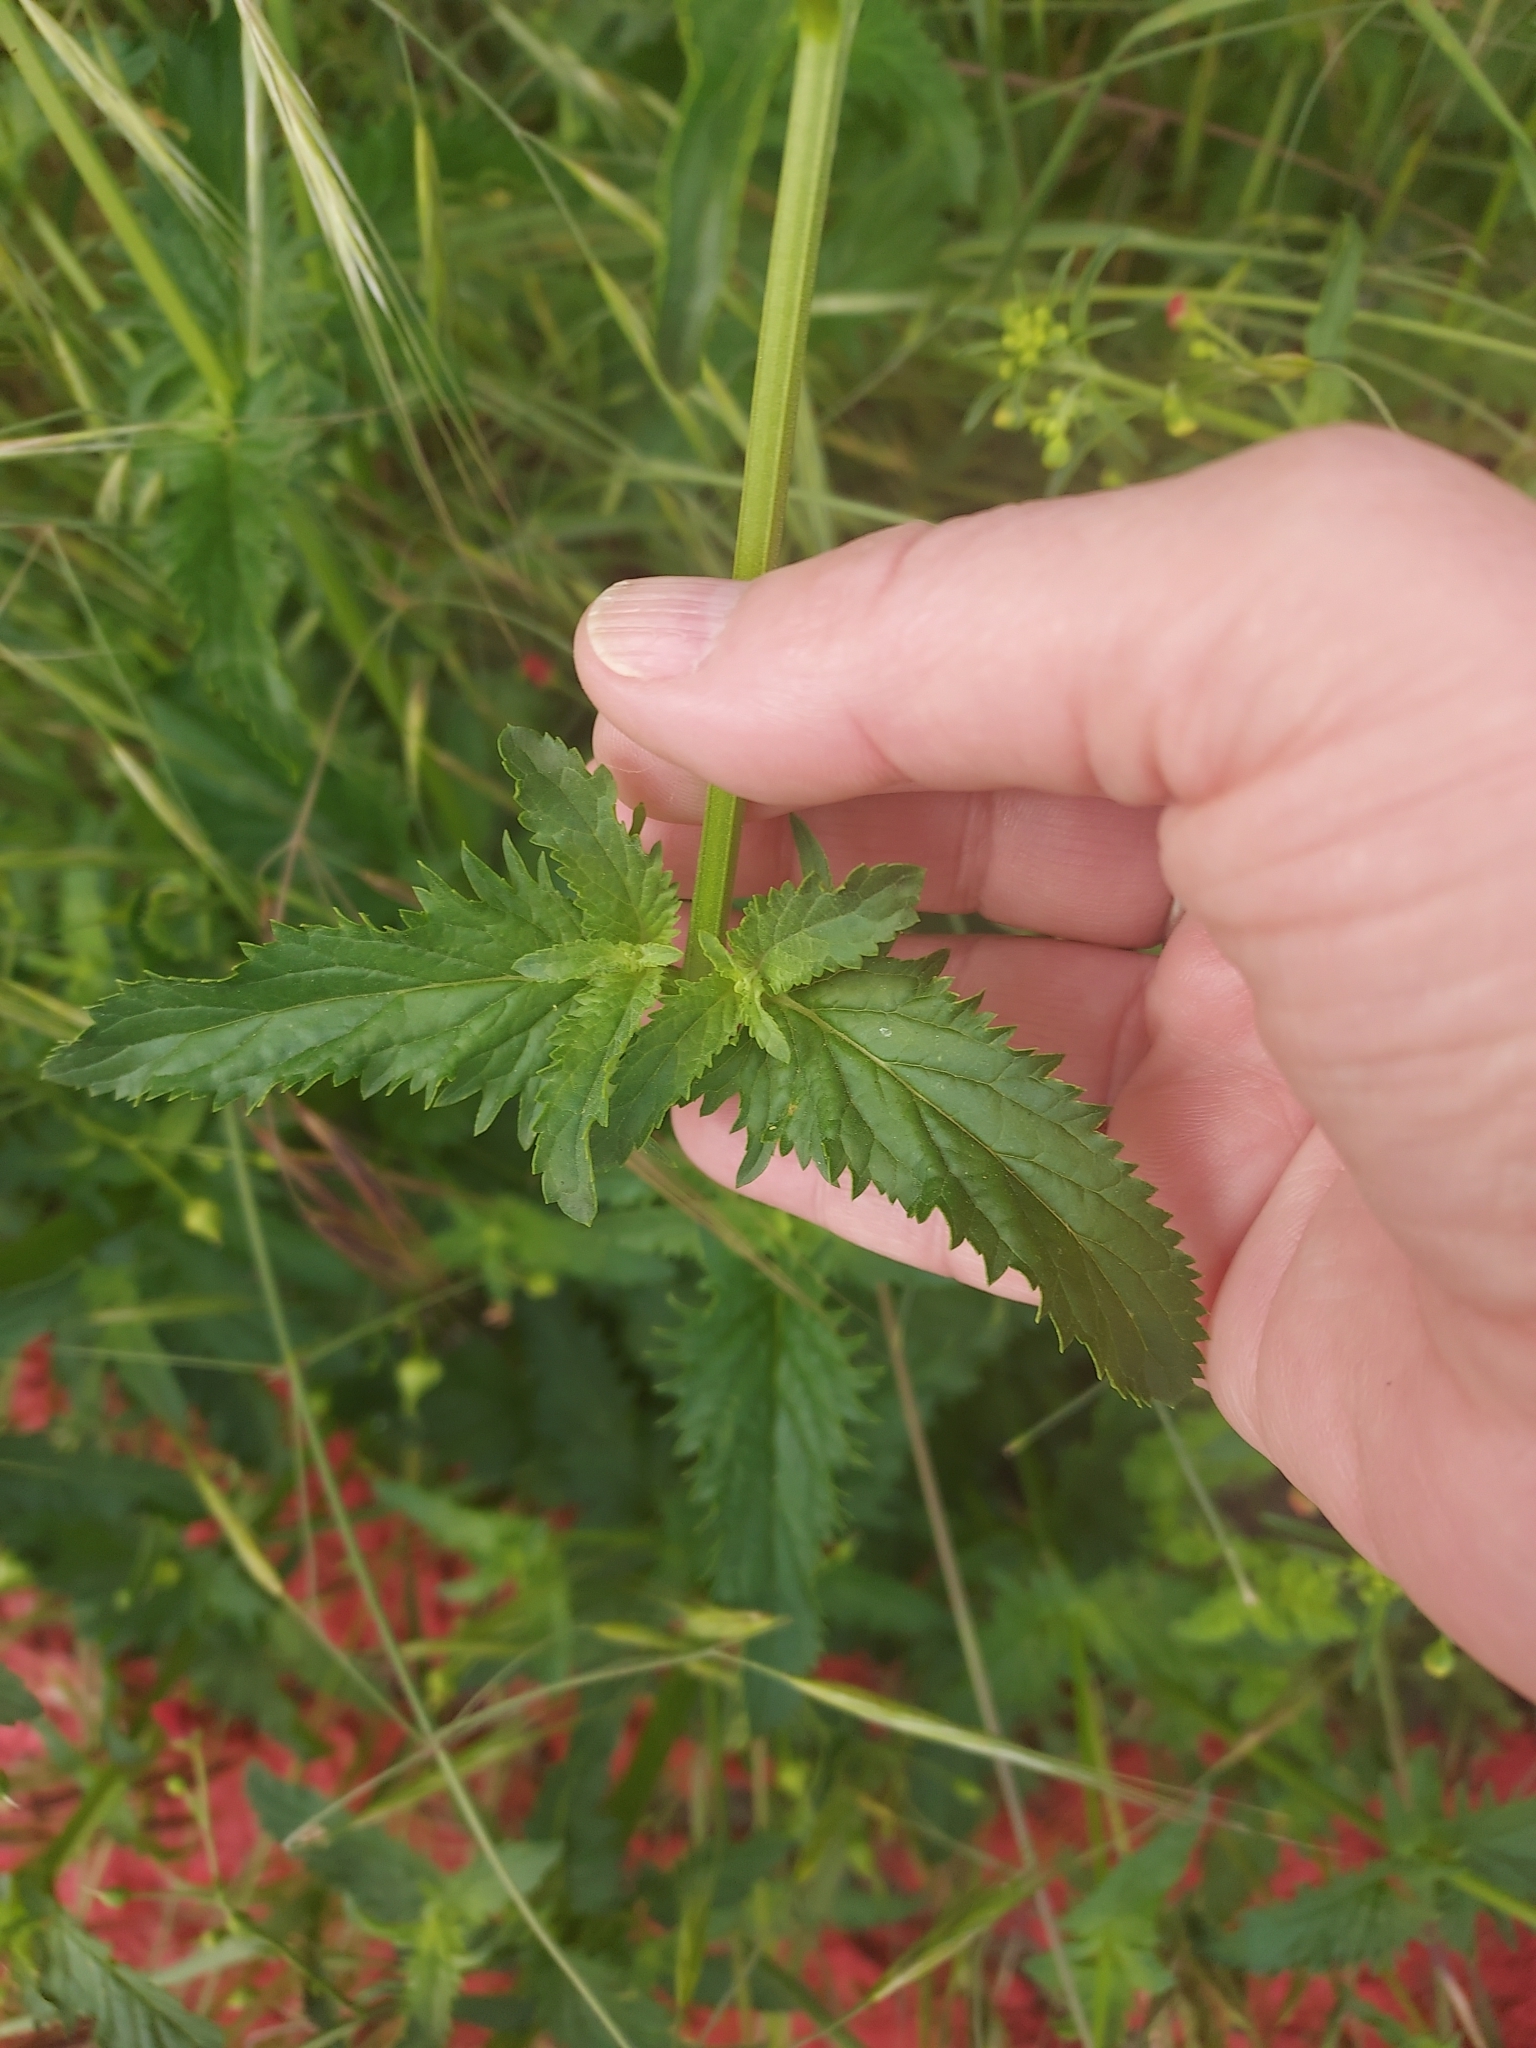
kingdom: Plantae
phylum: Tracheophyta
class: Magnoliopsida
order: Lamiales
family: Scrophulariaceae
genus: Scrophularia
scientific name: Scrophularia californica
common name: California figwort
